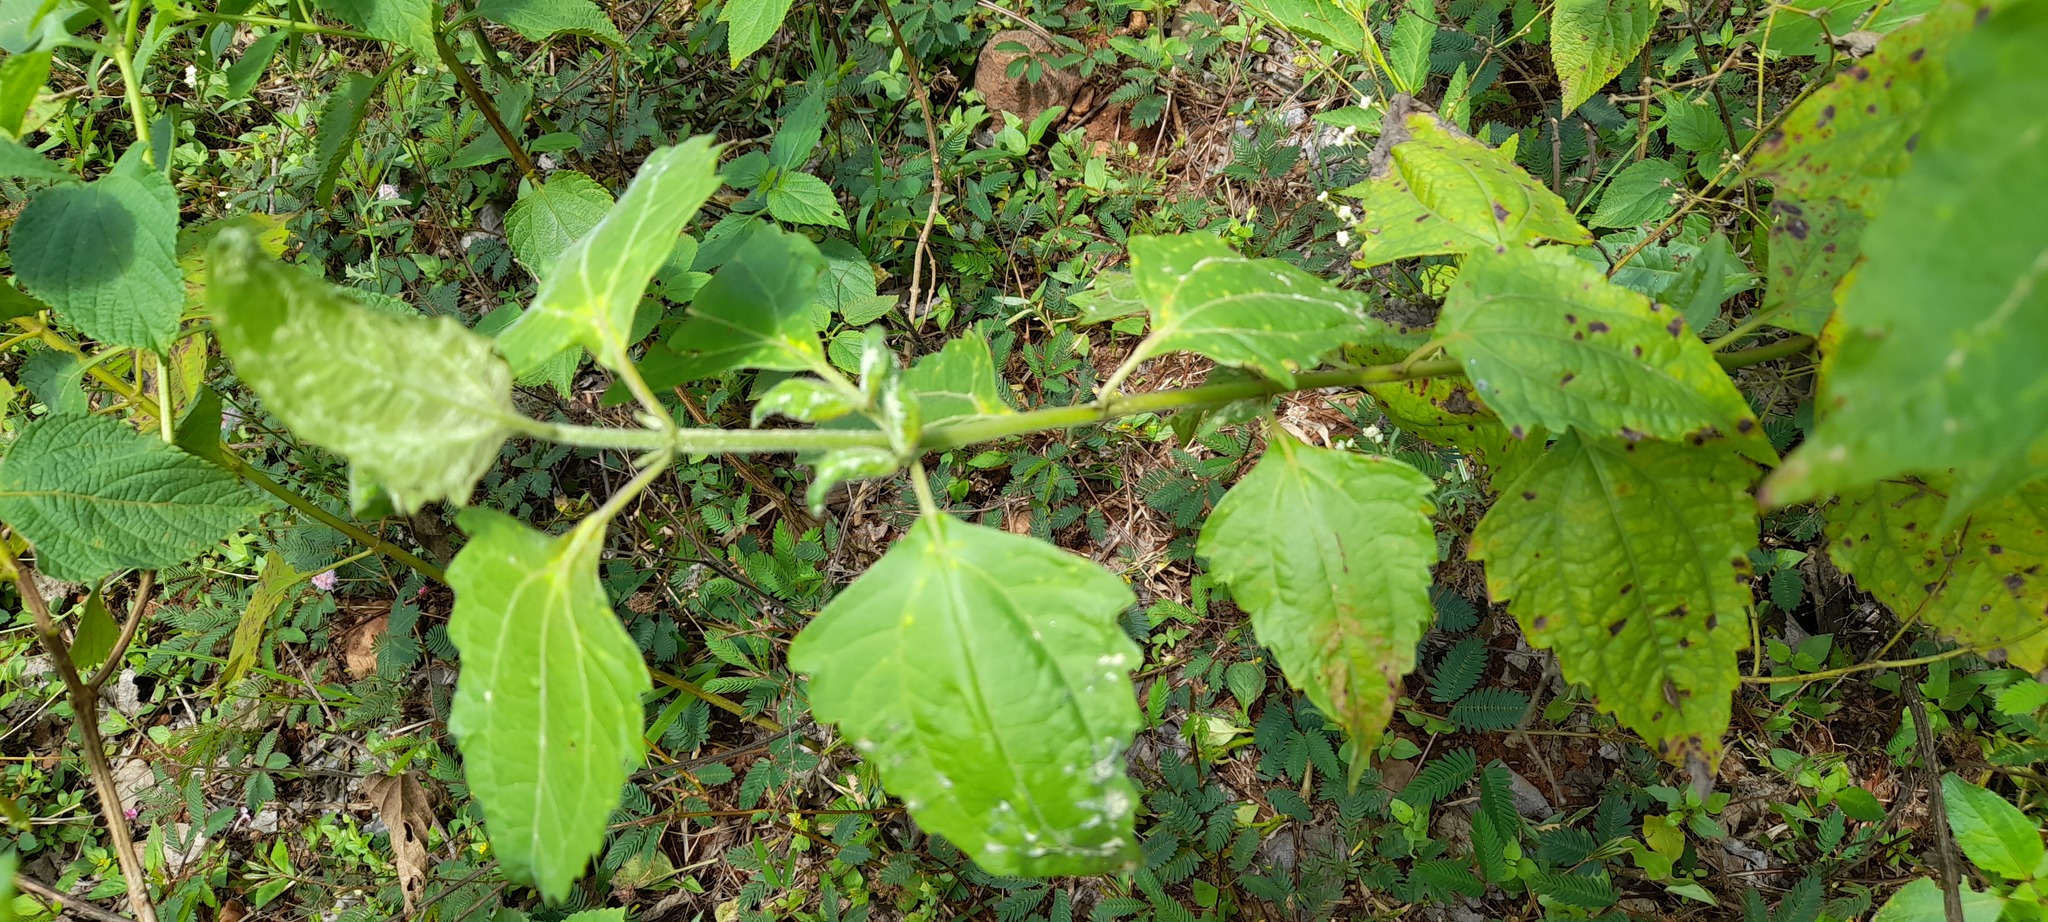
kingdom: Plantae
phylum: Tracheophyta
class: Magnoliopsida
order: Asterales
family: Asteraceae
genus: Chromolaena
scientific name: Chromolaena odorata
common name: Siamweed
